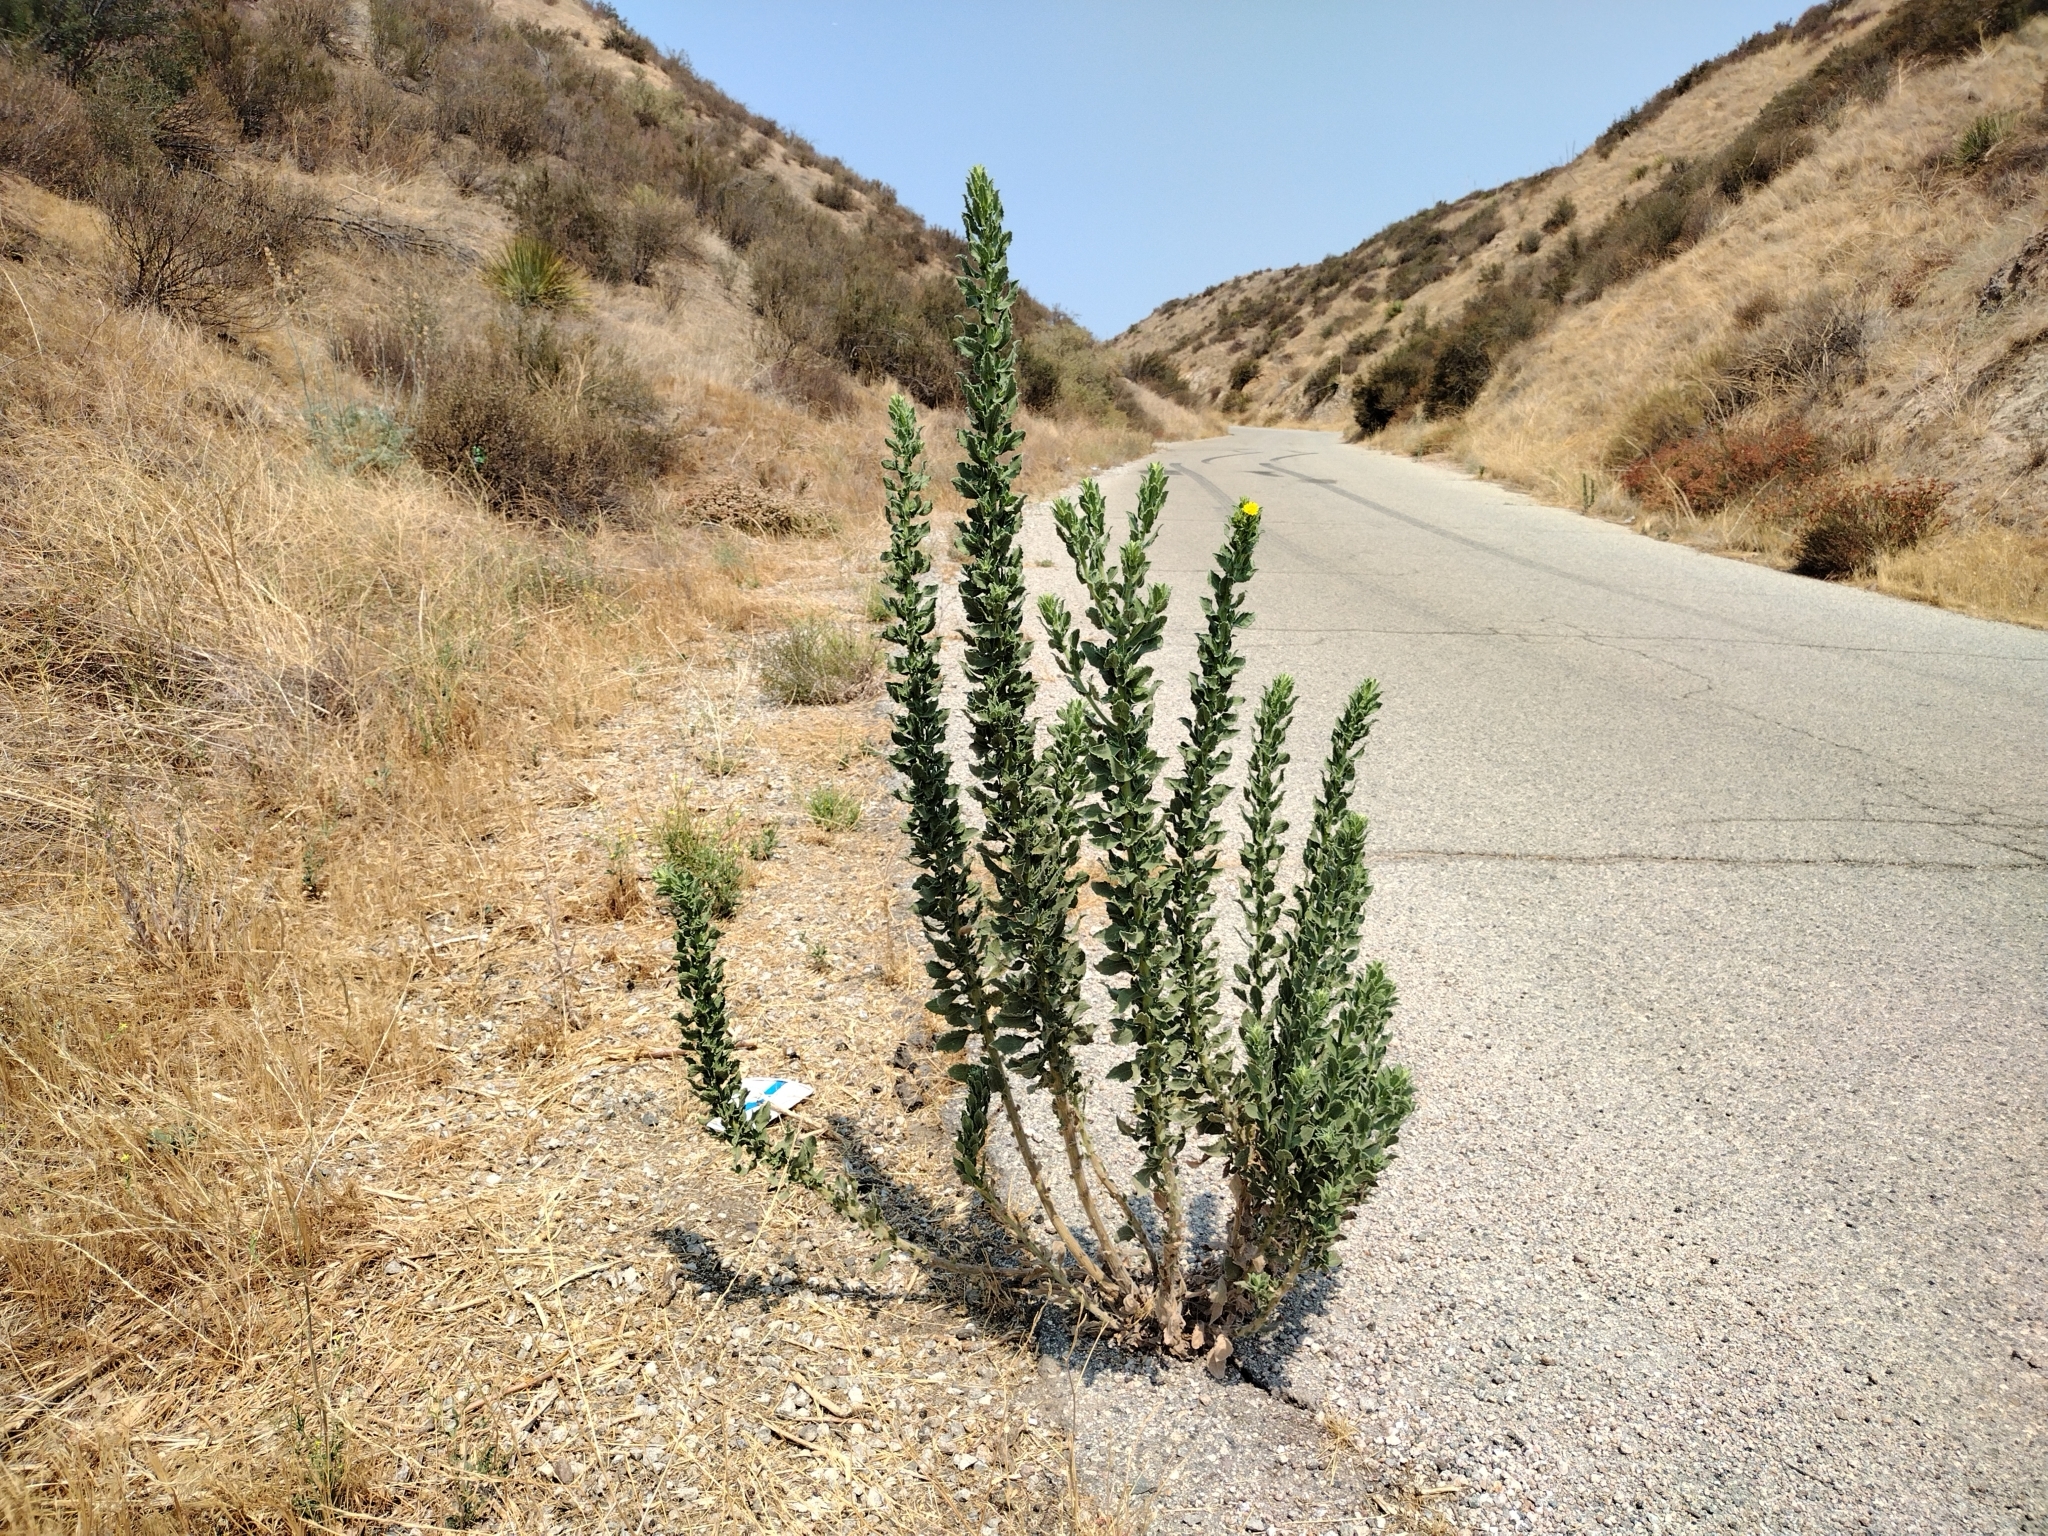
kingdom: Plantae
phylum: Tracheophyta
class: Magnoliopsida
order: Asterales
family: Asteraceae
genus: Heterotheca
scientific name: Heterotheca grandiflora
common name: Telegraphweed
